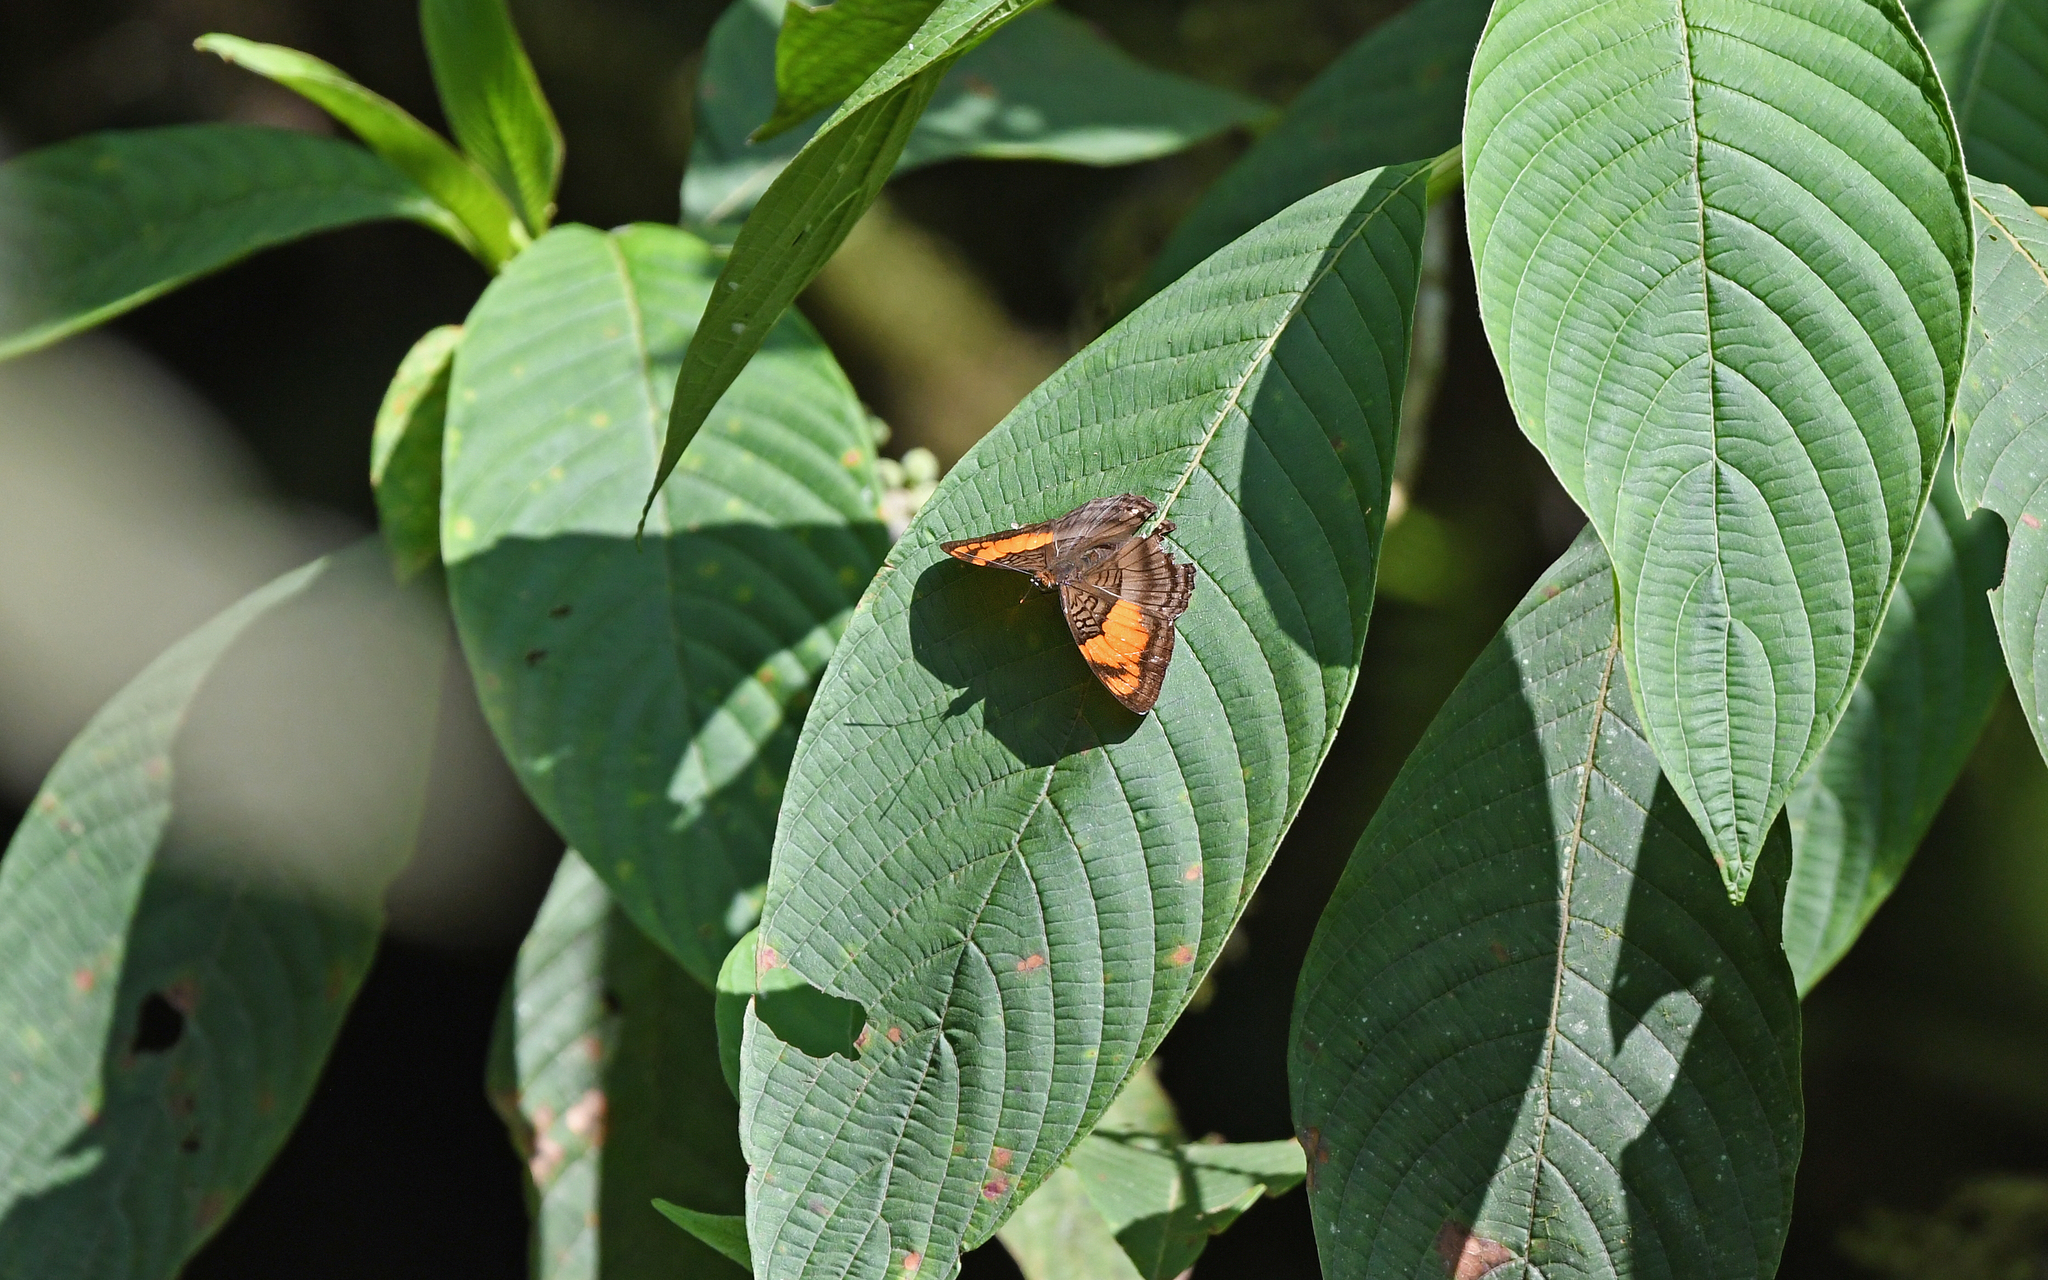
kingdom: Animalia
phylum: Arthropoda
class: Insecta
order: Lepidoptera
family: Nymphalidae
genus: Limenitis
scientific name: Limenitis mesentina
